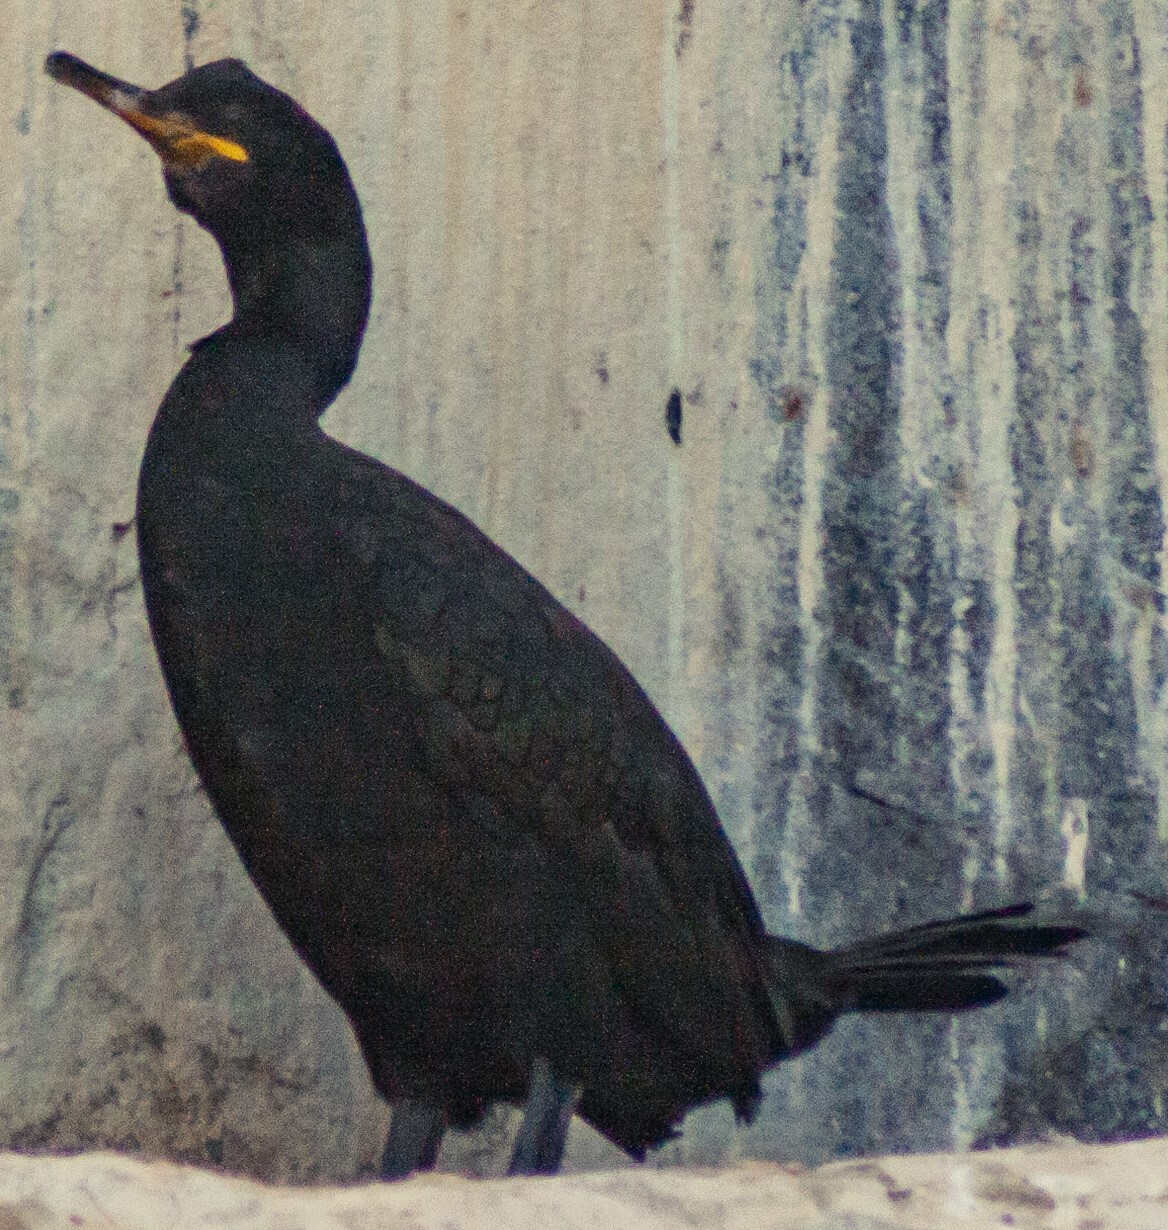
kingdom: Animalia
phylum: Chordata
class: Aves
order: Suliformes
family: Phalacrocoracidae
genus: Phalacrocorax
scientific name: Phalacrocorax aristotelis
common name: European shag
